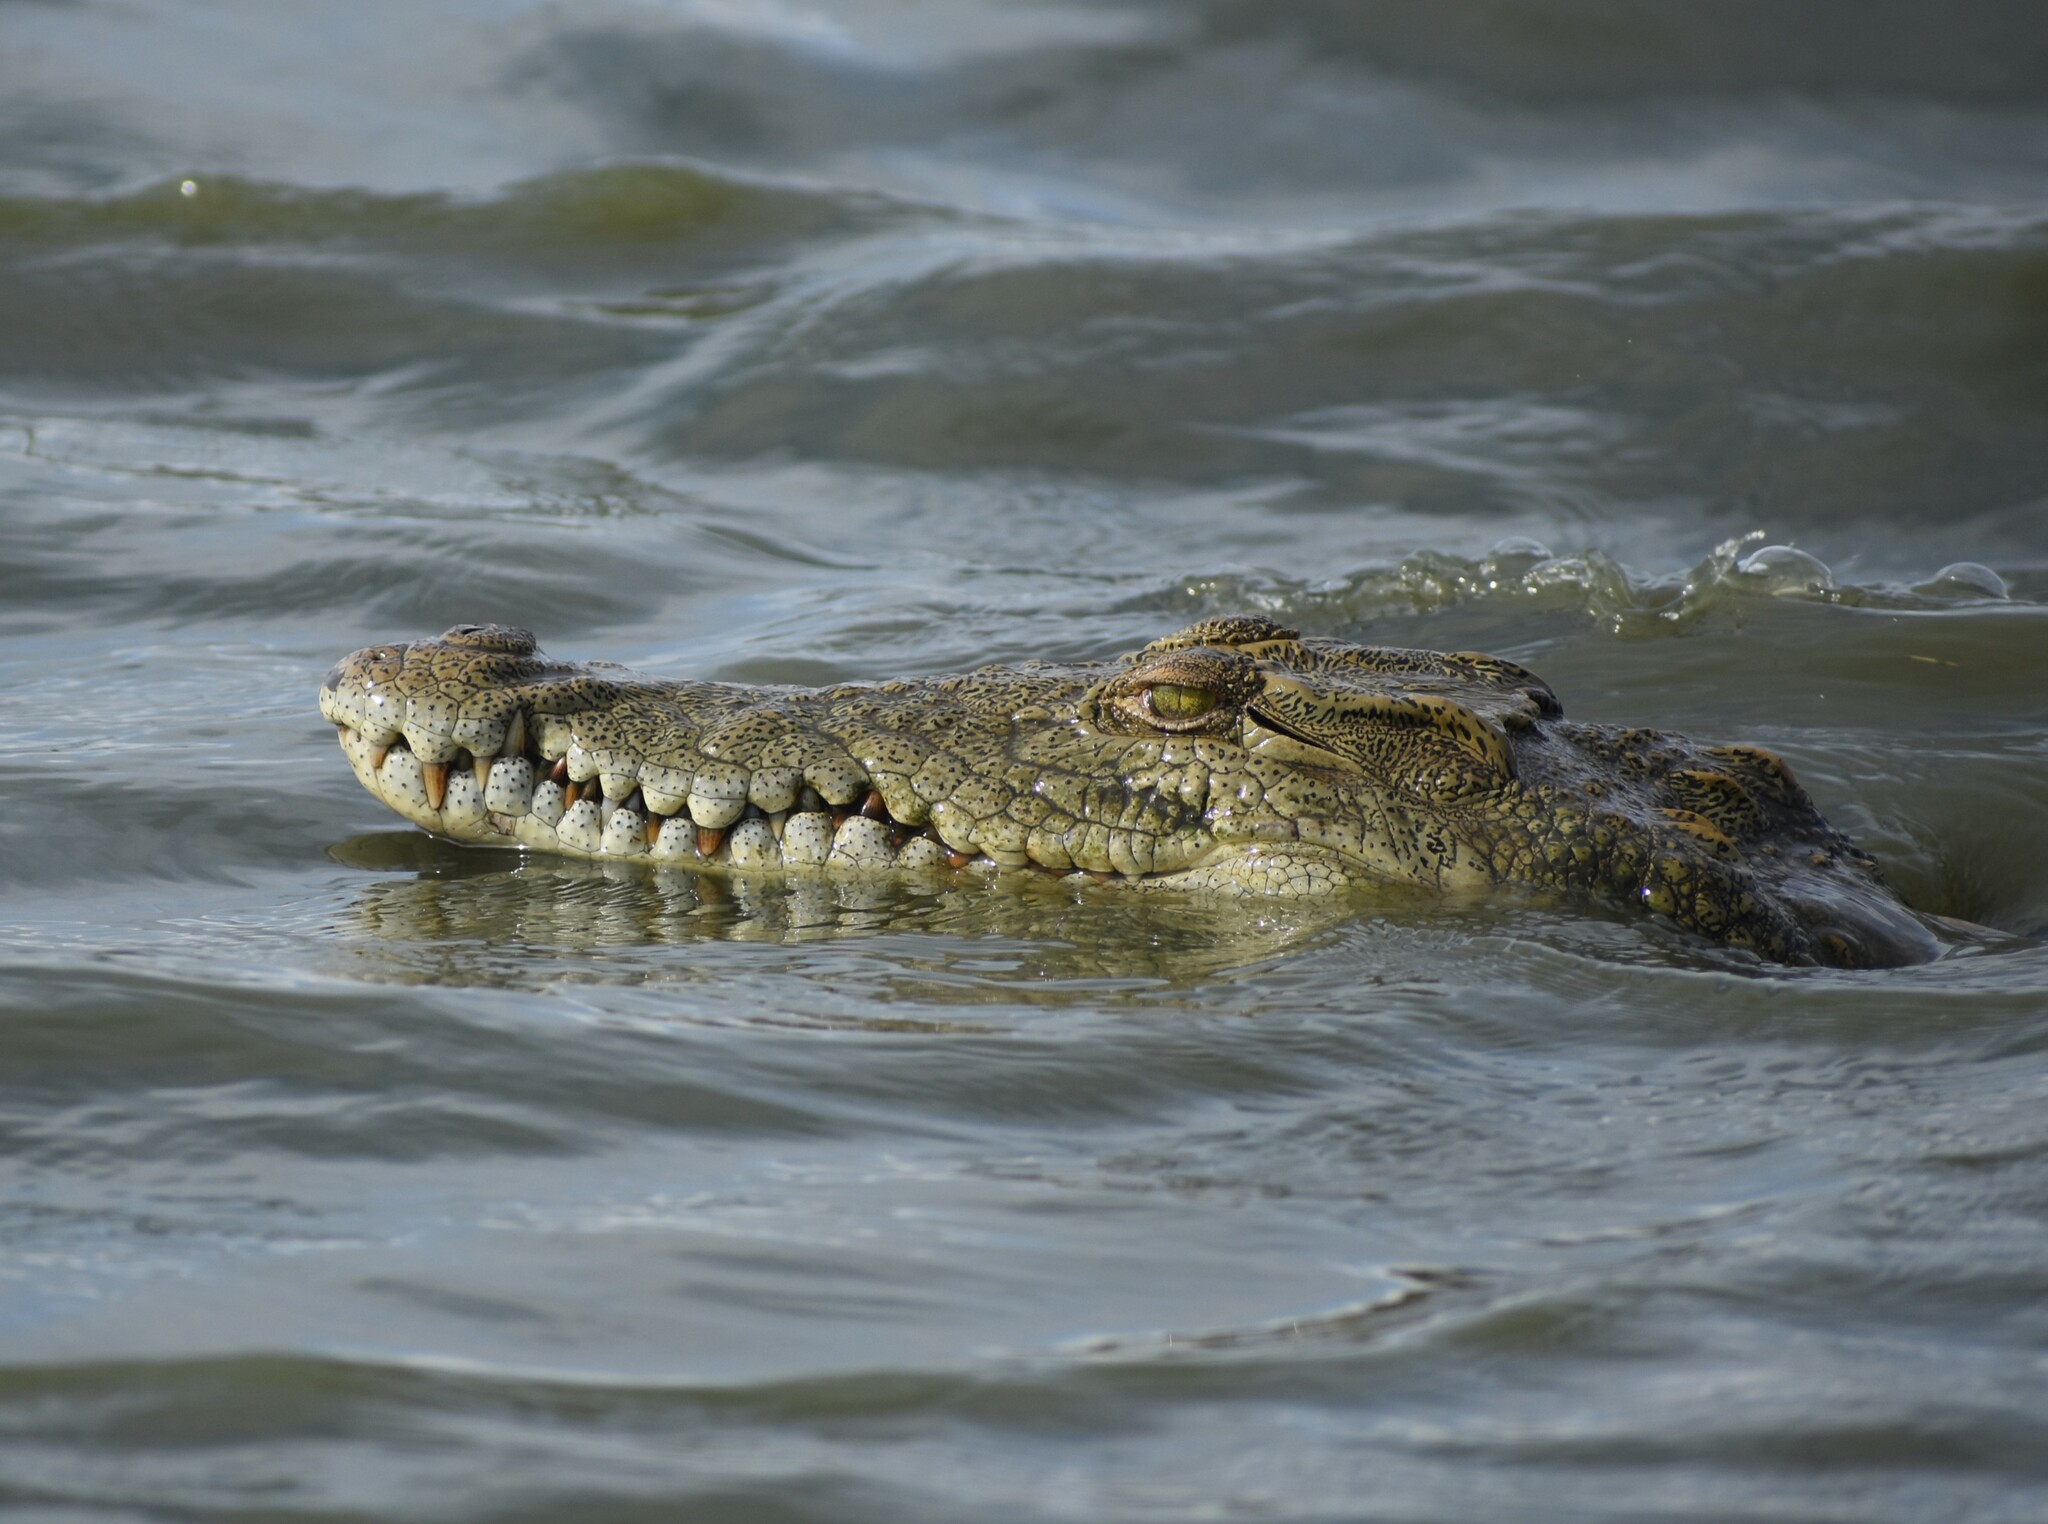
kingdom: Animalia
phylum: Chordata
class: Crocodylia
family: Crocodylidae
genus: Crocodylus
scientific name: Crocodylus niloticus
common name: Nile crocodile
